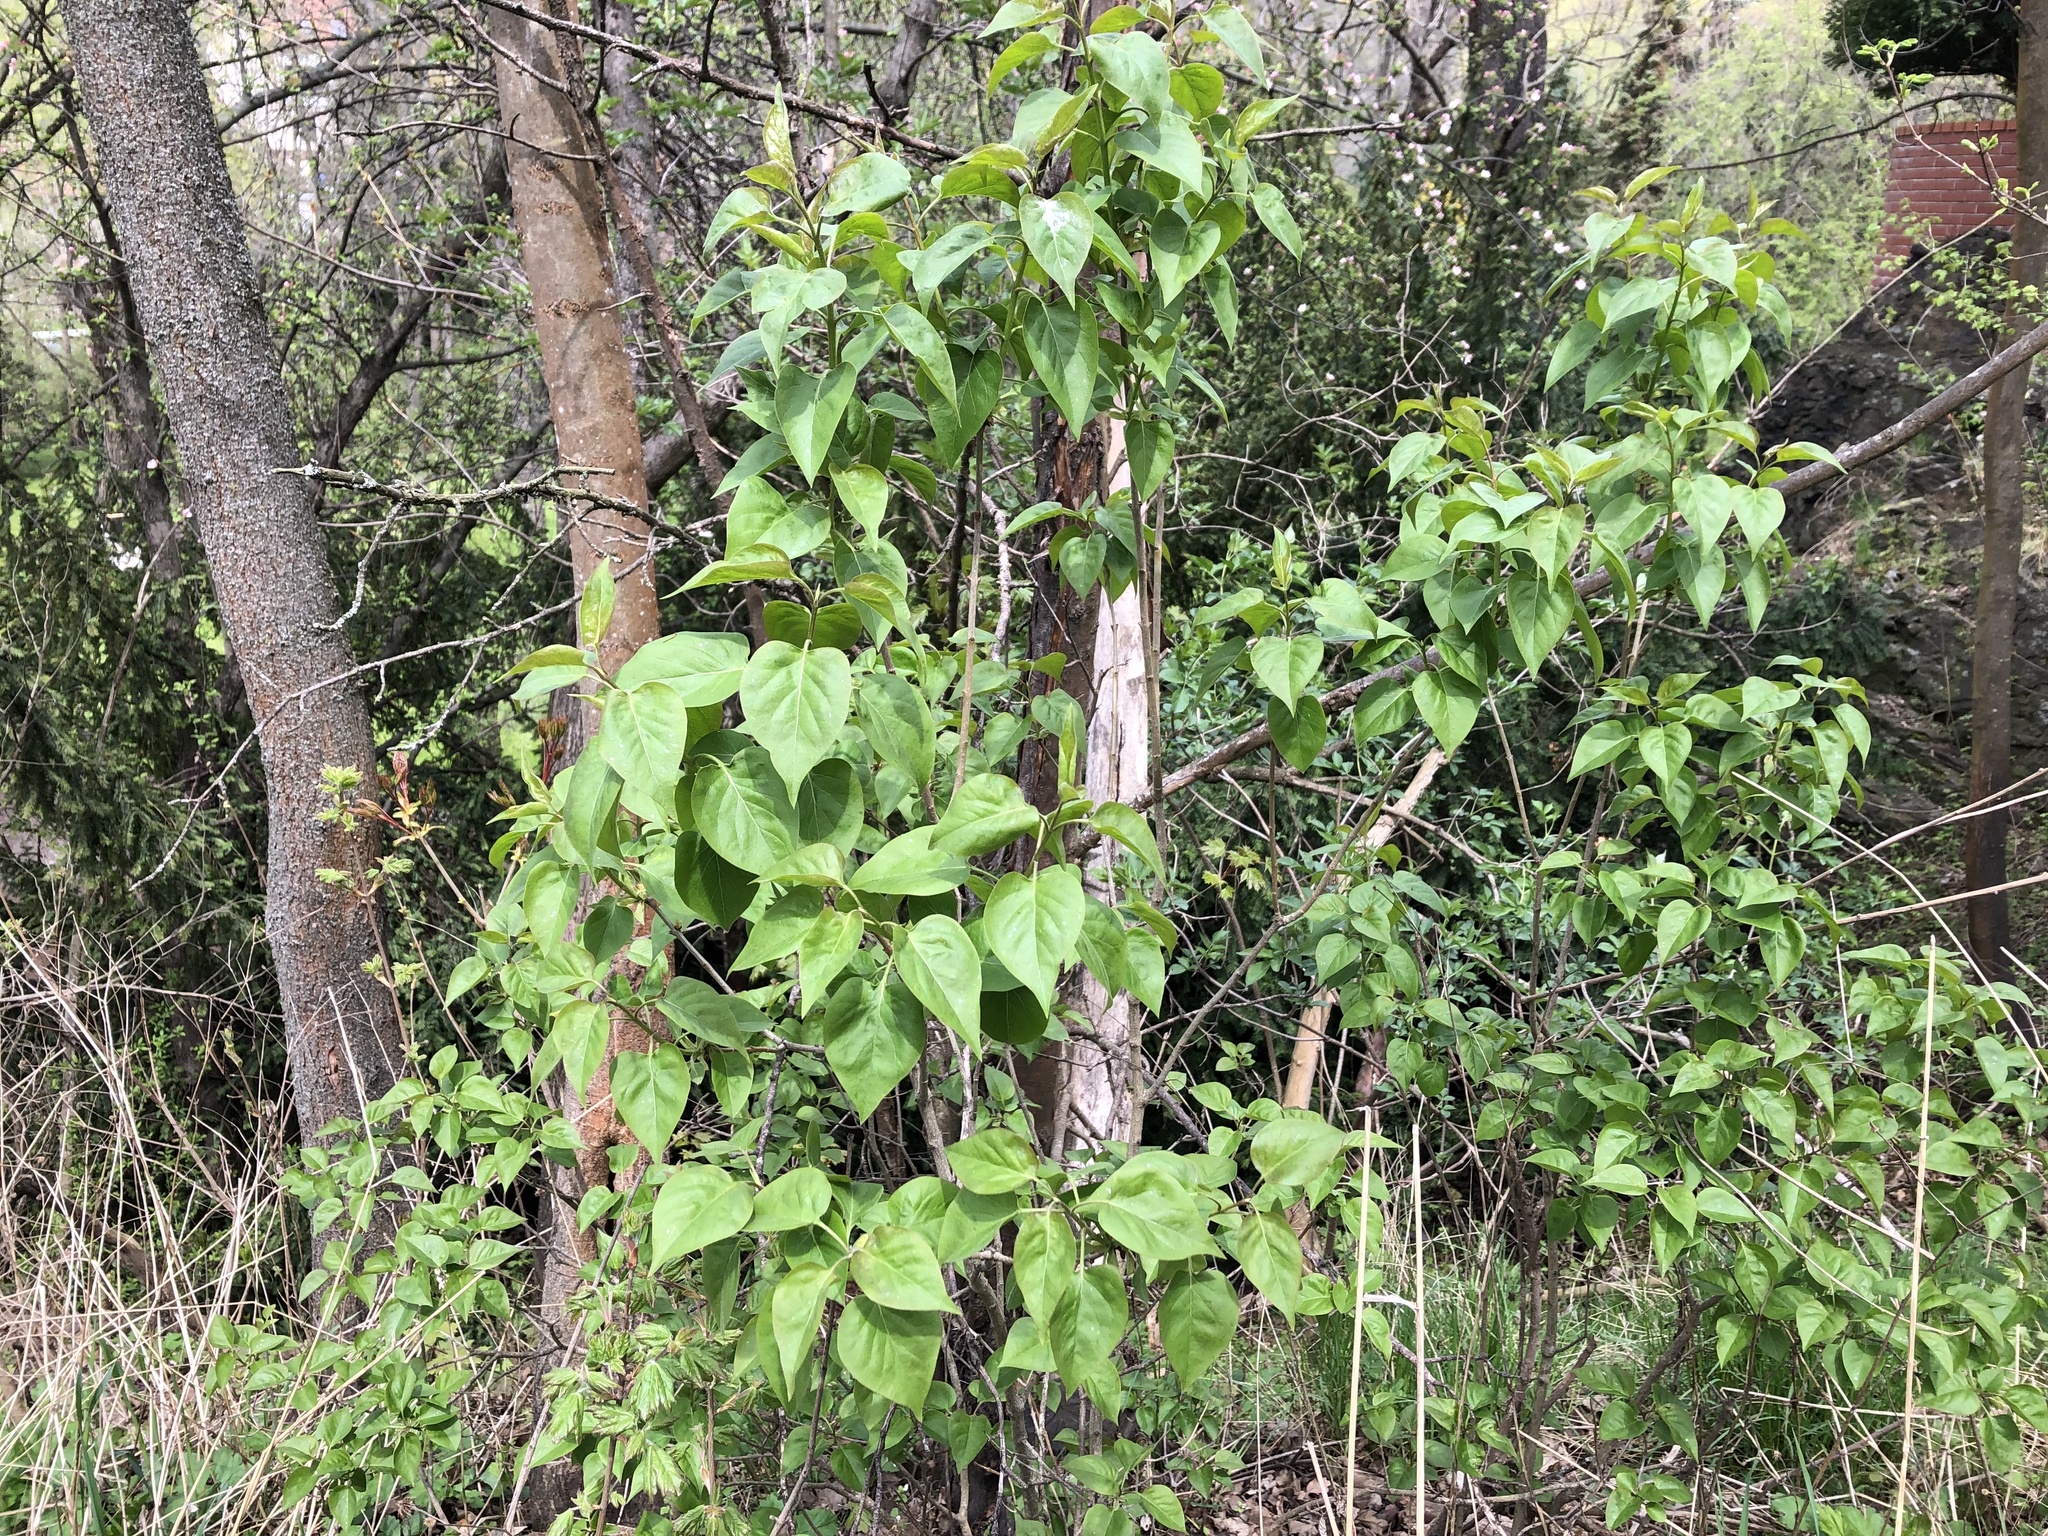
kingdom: Plantae
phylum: Tracheophyta
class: Magnoliopsida
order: Lamiales
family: Oleaceae
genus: Syringa
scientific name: Syringa vulgaris
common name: Common lilac
